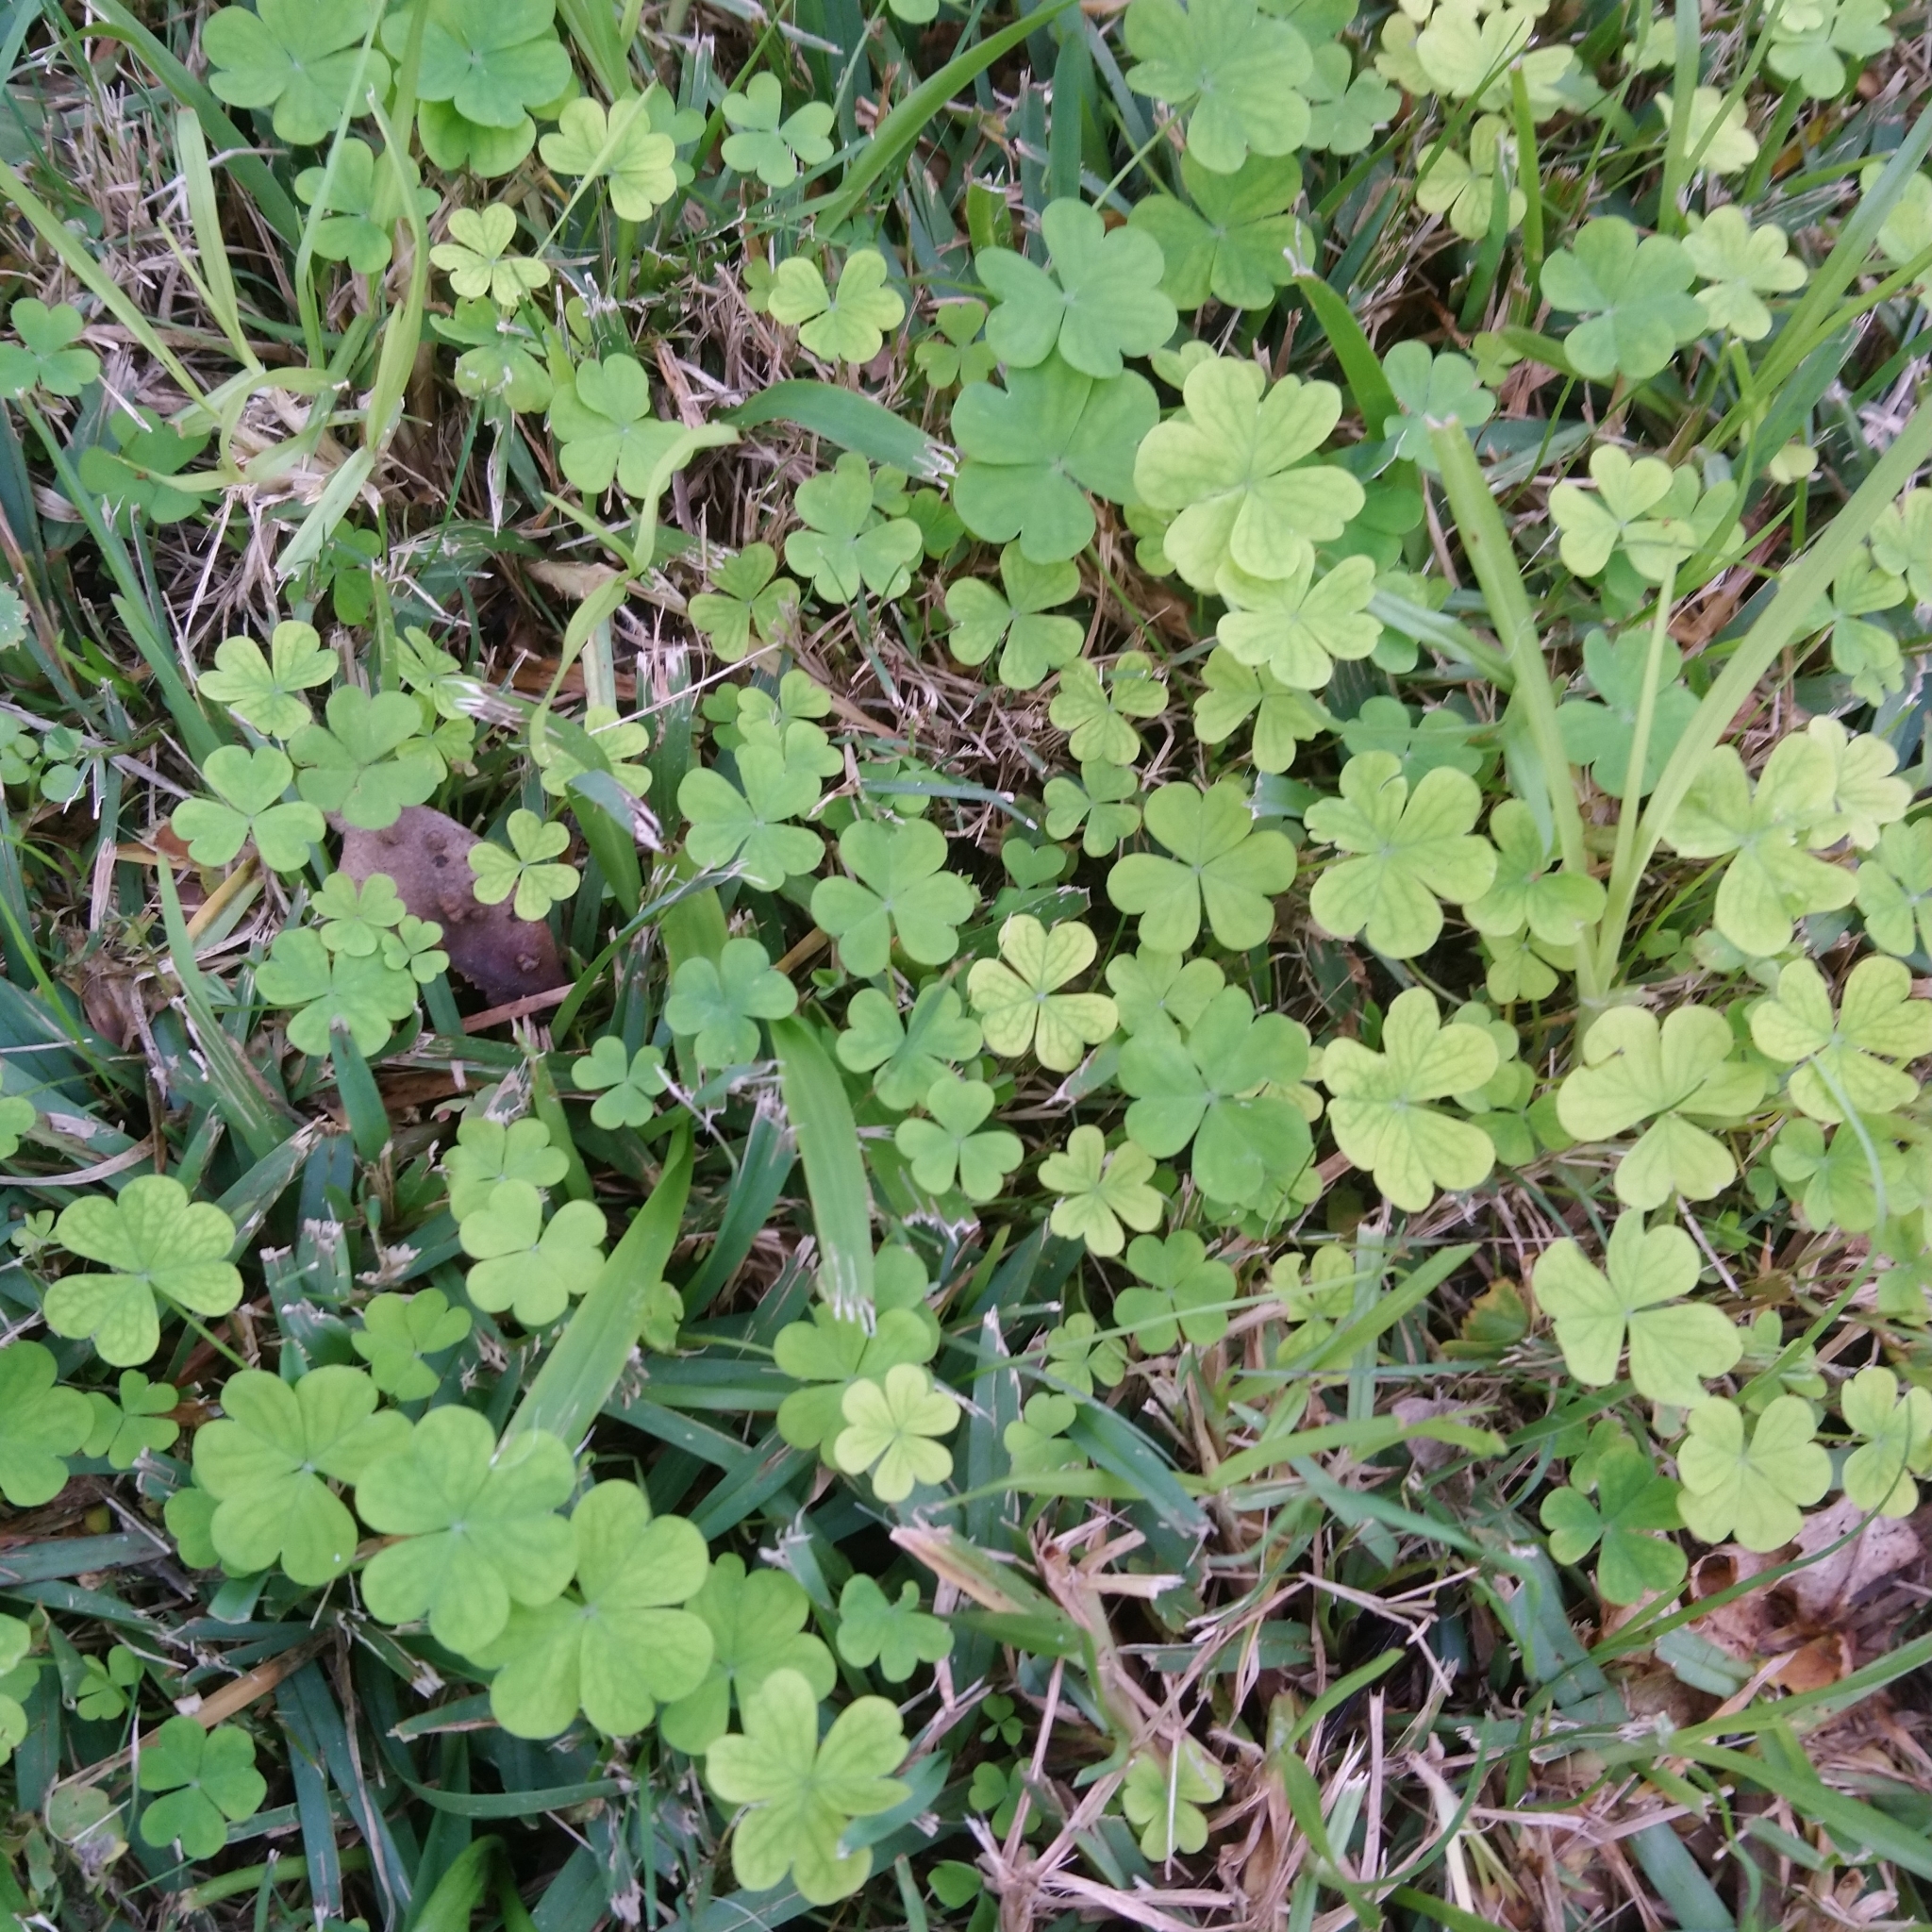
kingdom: Plantae
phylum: Tracheophyta
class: Magnoliopsida
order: Oxalidales
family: Oxalidaceae
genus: Oxalis
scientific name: Oxalis
